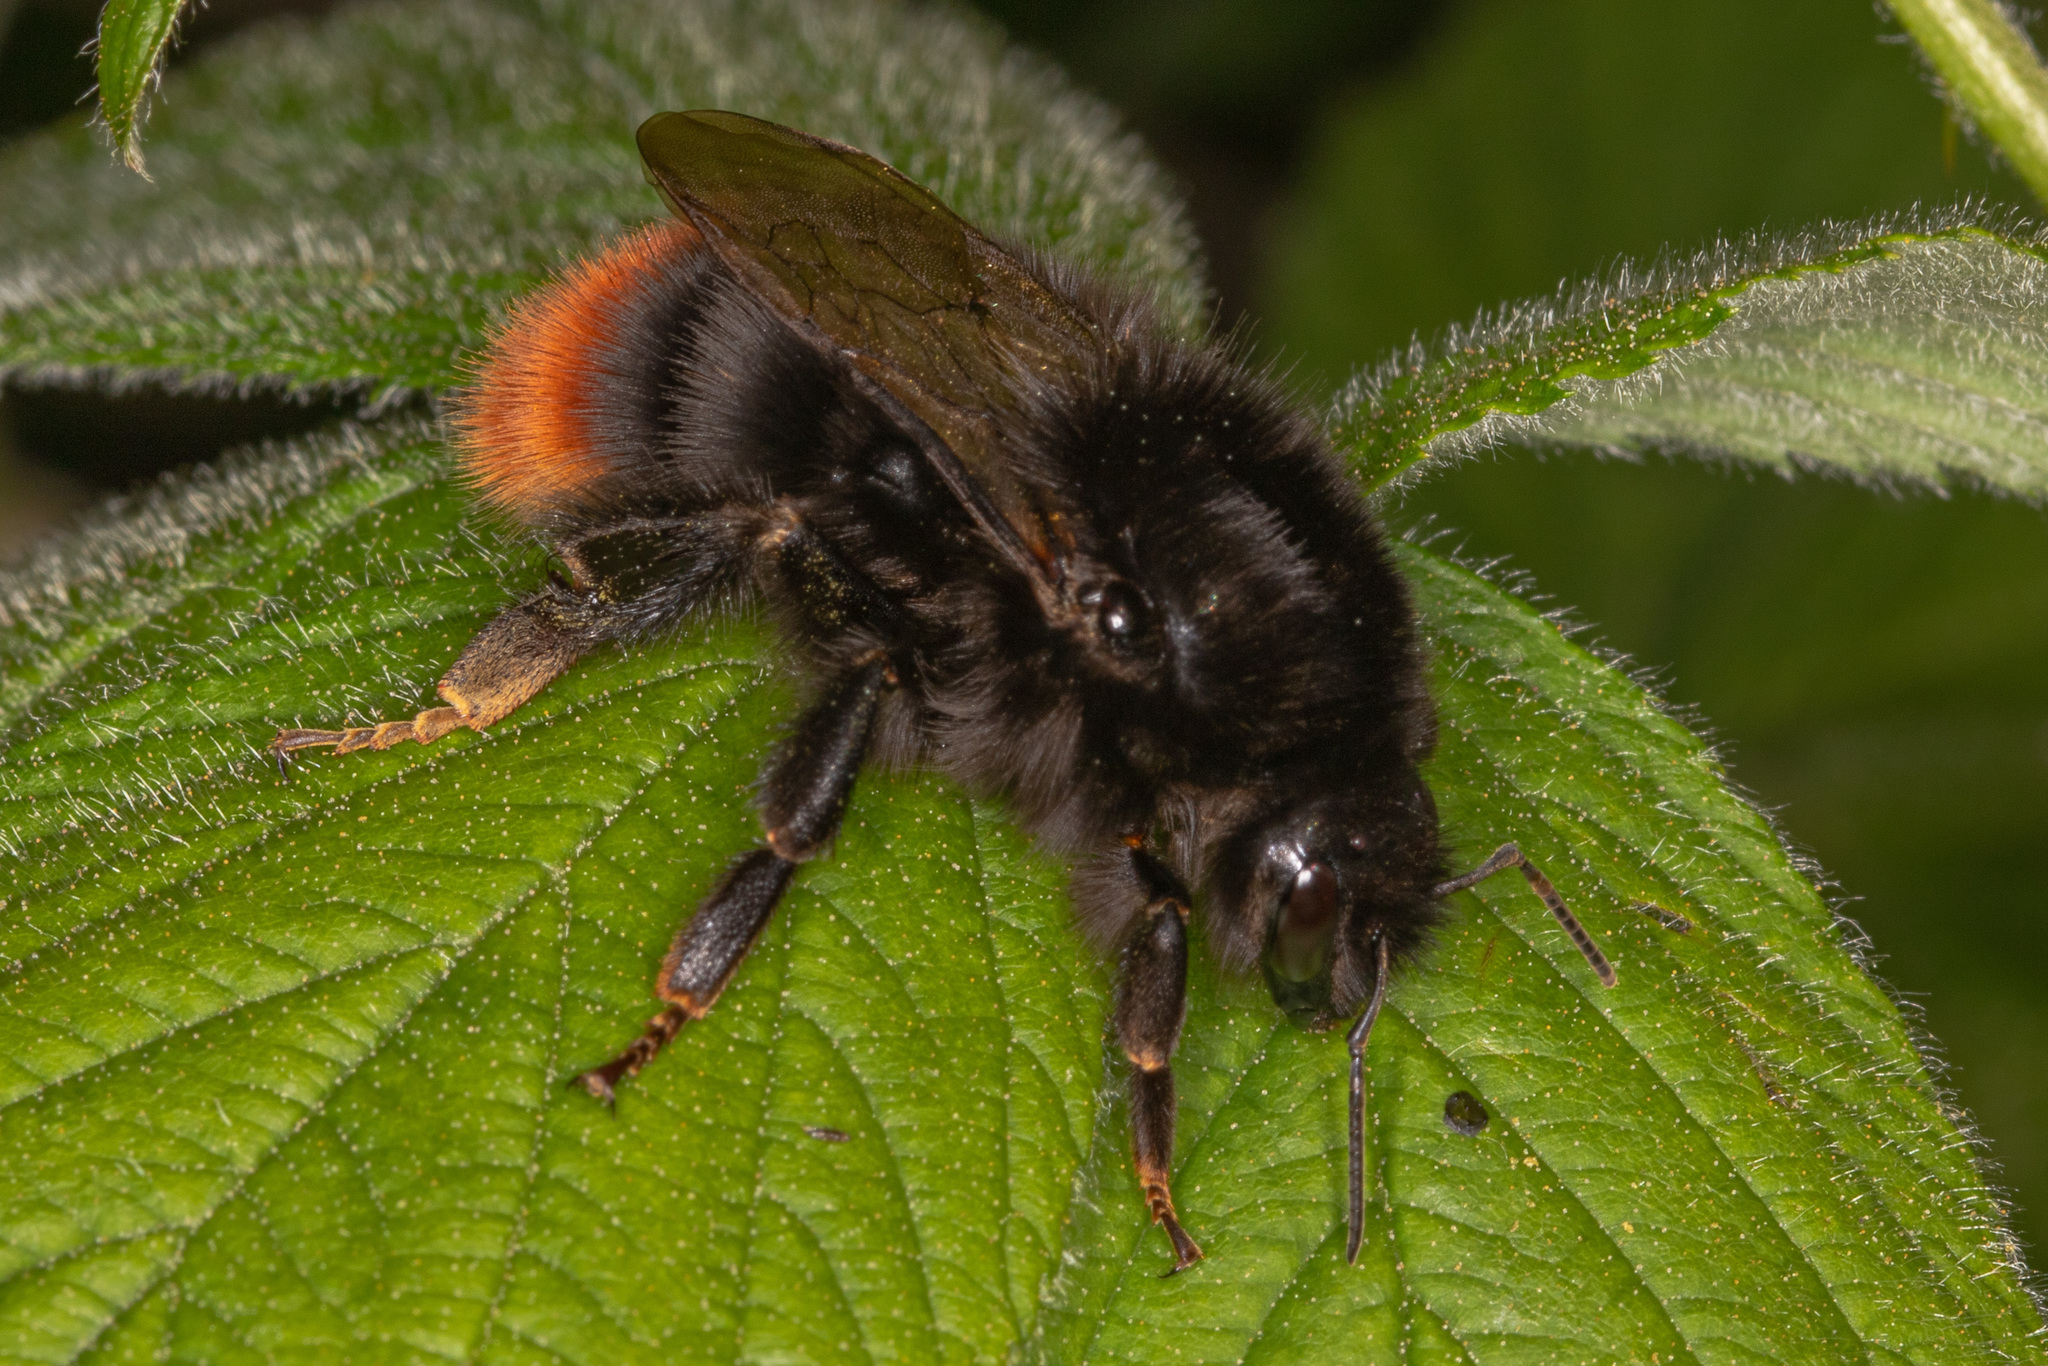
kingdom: Animalia
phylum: Arthropoda
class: Insecta
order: Hymenoptera
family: Apidae
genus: Bombus
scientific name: Bombus lapidarius
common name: Large red-tailed humble-bee
